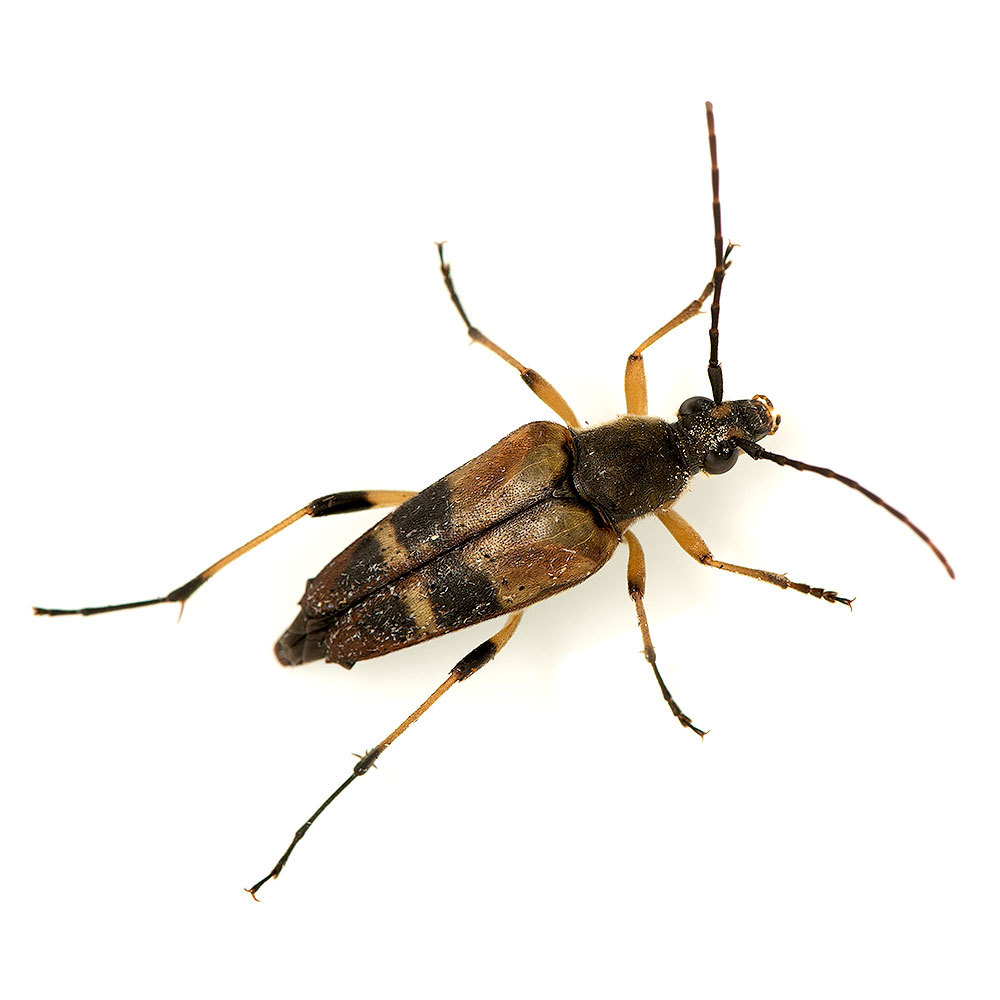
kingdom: Animalia
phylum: Arthropoda
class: Insecta
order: Coleoptera
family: Cerambycidae
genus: Etorofus
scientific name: Etorofus obliteratus
